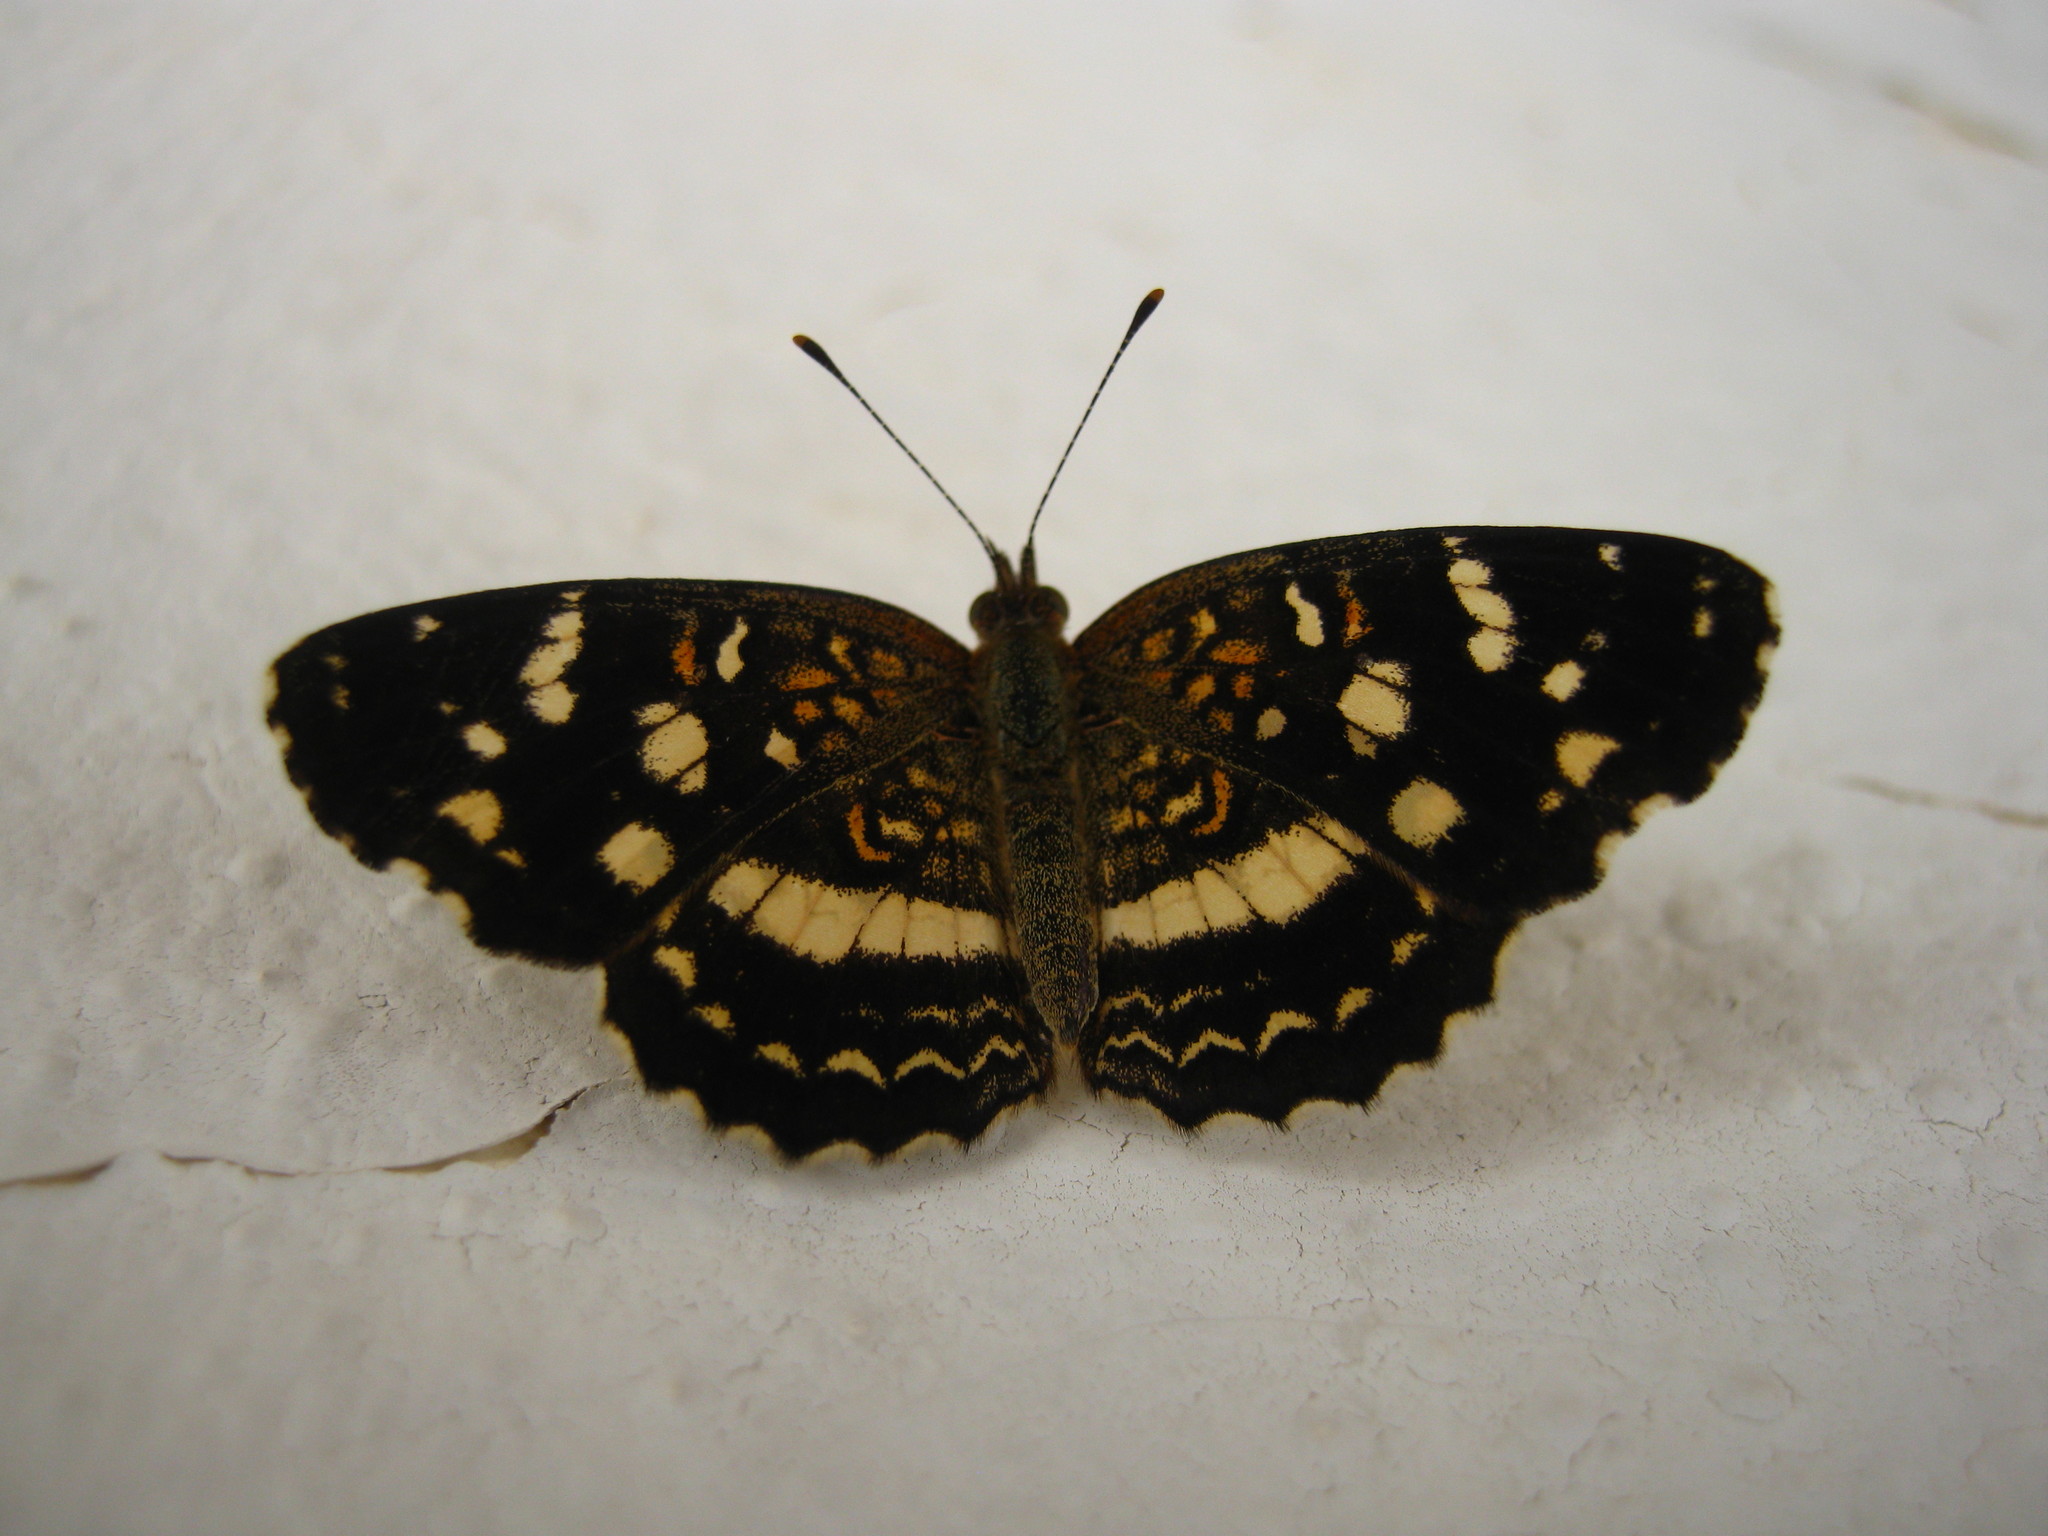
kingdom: Animalia
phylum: Arthropoda
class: Insecta
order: Lepidoptera
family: Nymphalidae
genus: Anthanassa
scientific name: Anthanassa tulcis
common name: Pale-banded crescent
